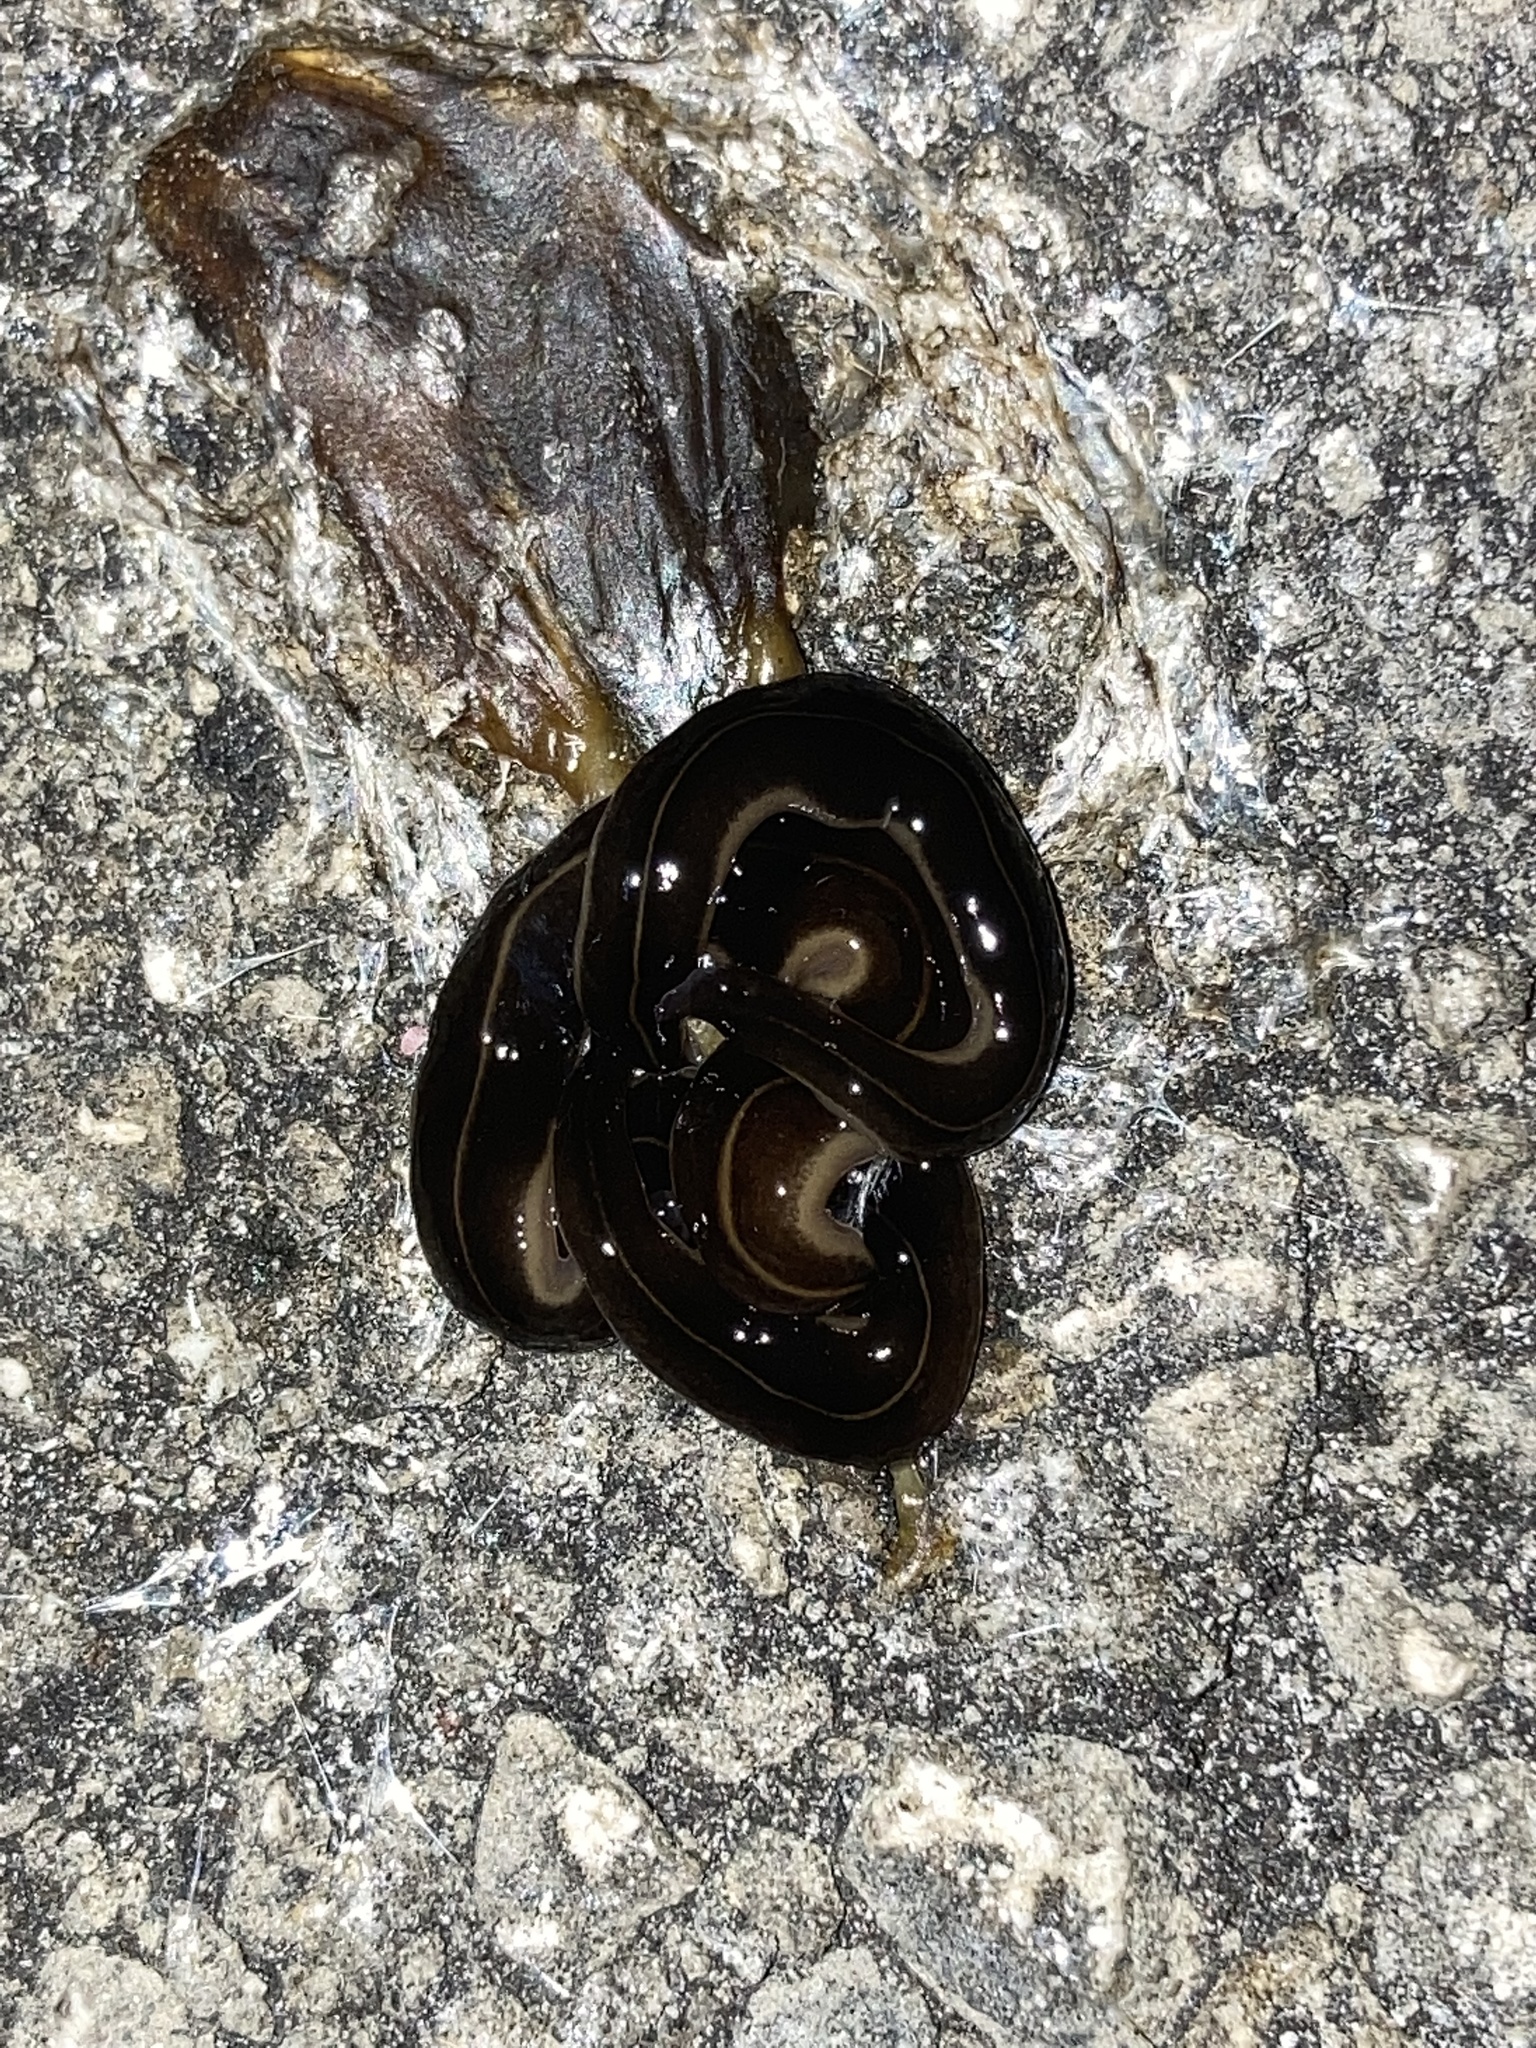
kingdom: Animalia
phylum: Platyhelminthes
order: Tricladida
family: Geoplanidae
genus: Platydemus
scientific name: Platydemus manokwari
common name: New guinea flatworm
